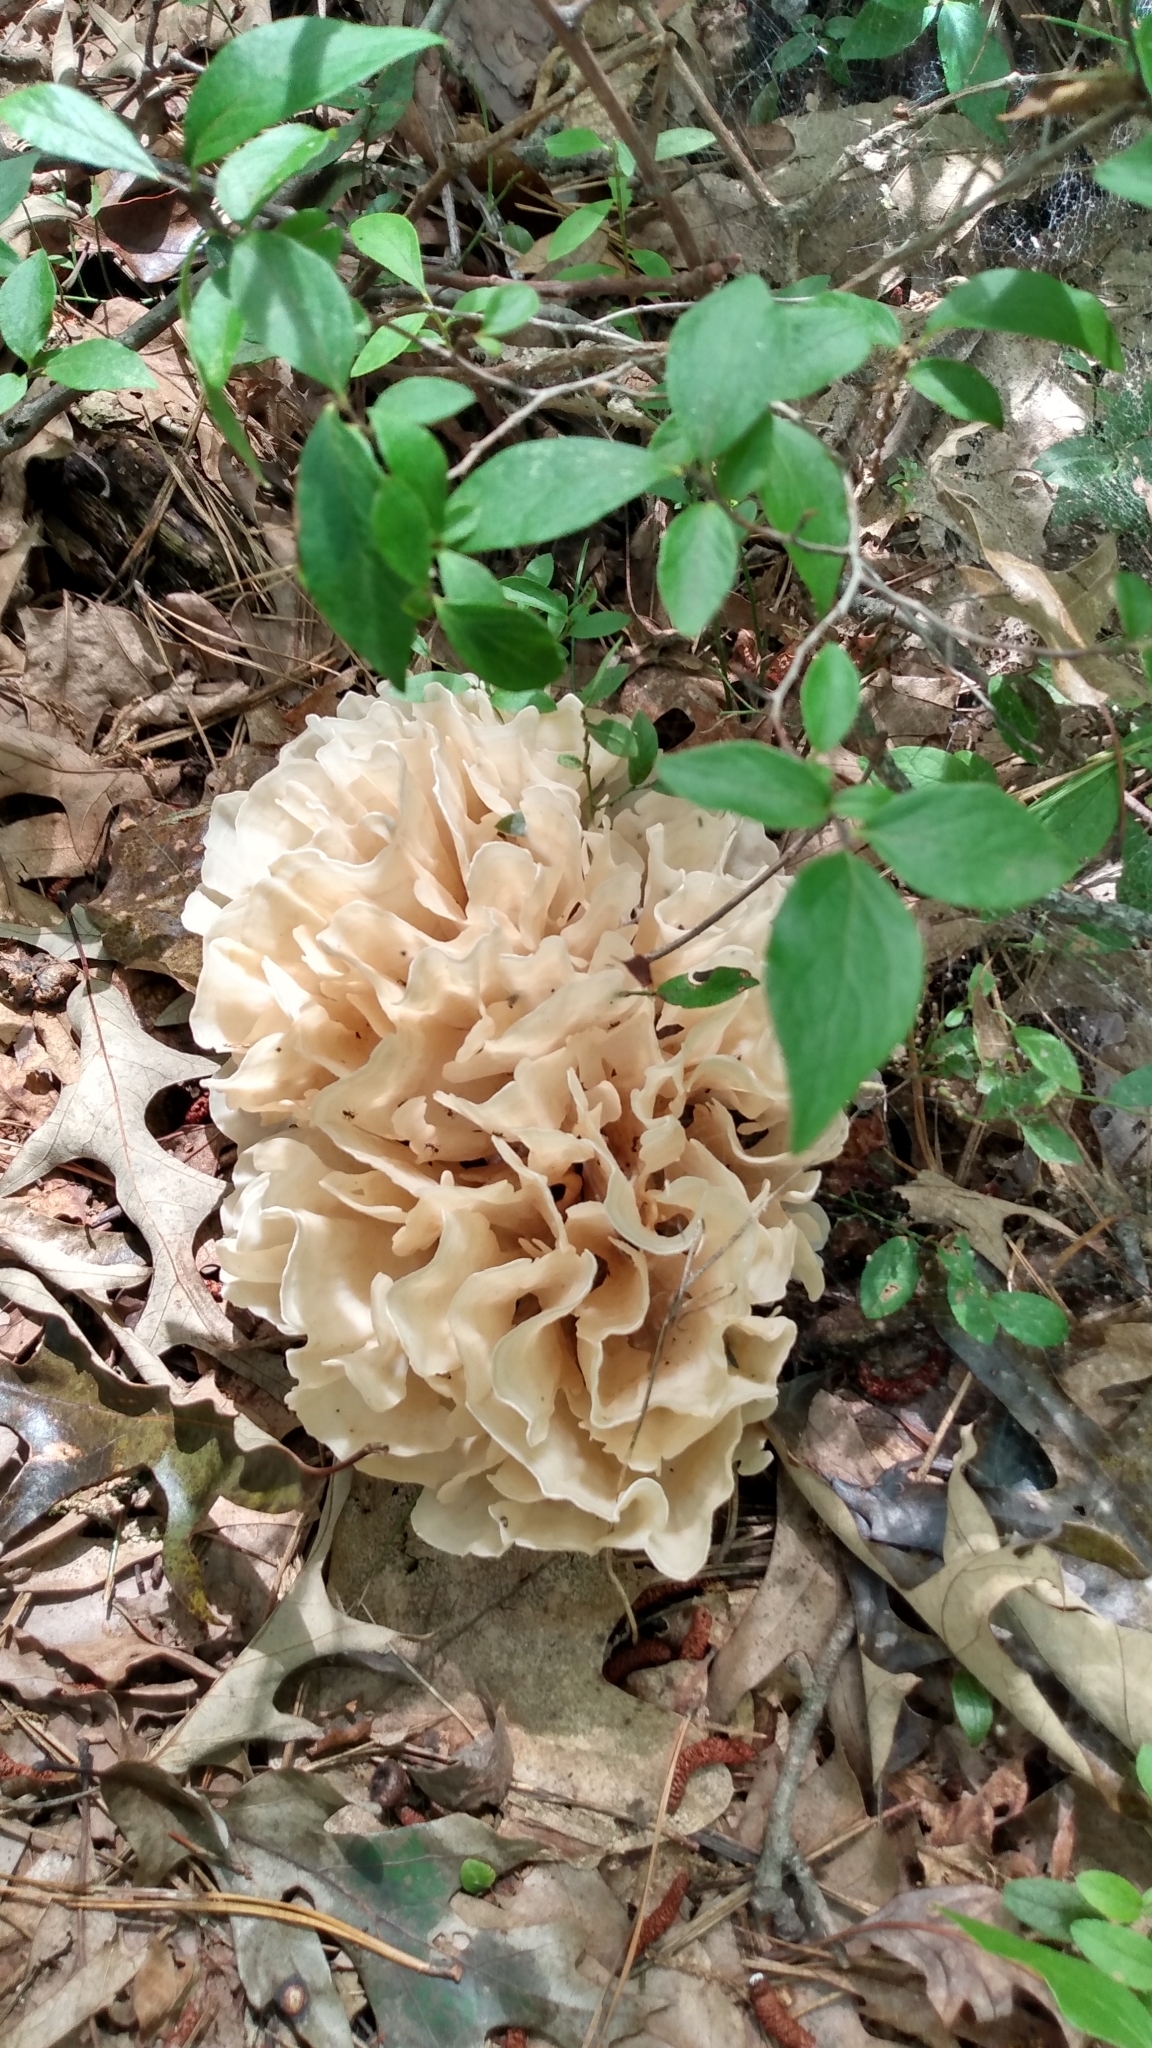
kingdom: Fungi
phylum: Basidiomycota
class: Agaricomycetes
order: Polyporales
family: Sparassidaceae
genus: Sparassis
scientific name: Sparassis spathulata
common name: Eastern cauliflower mushroom
